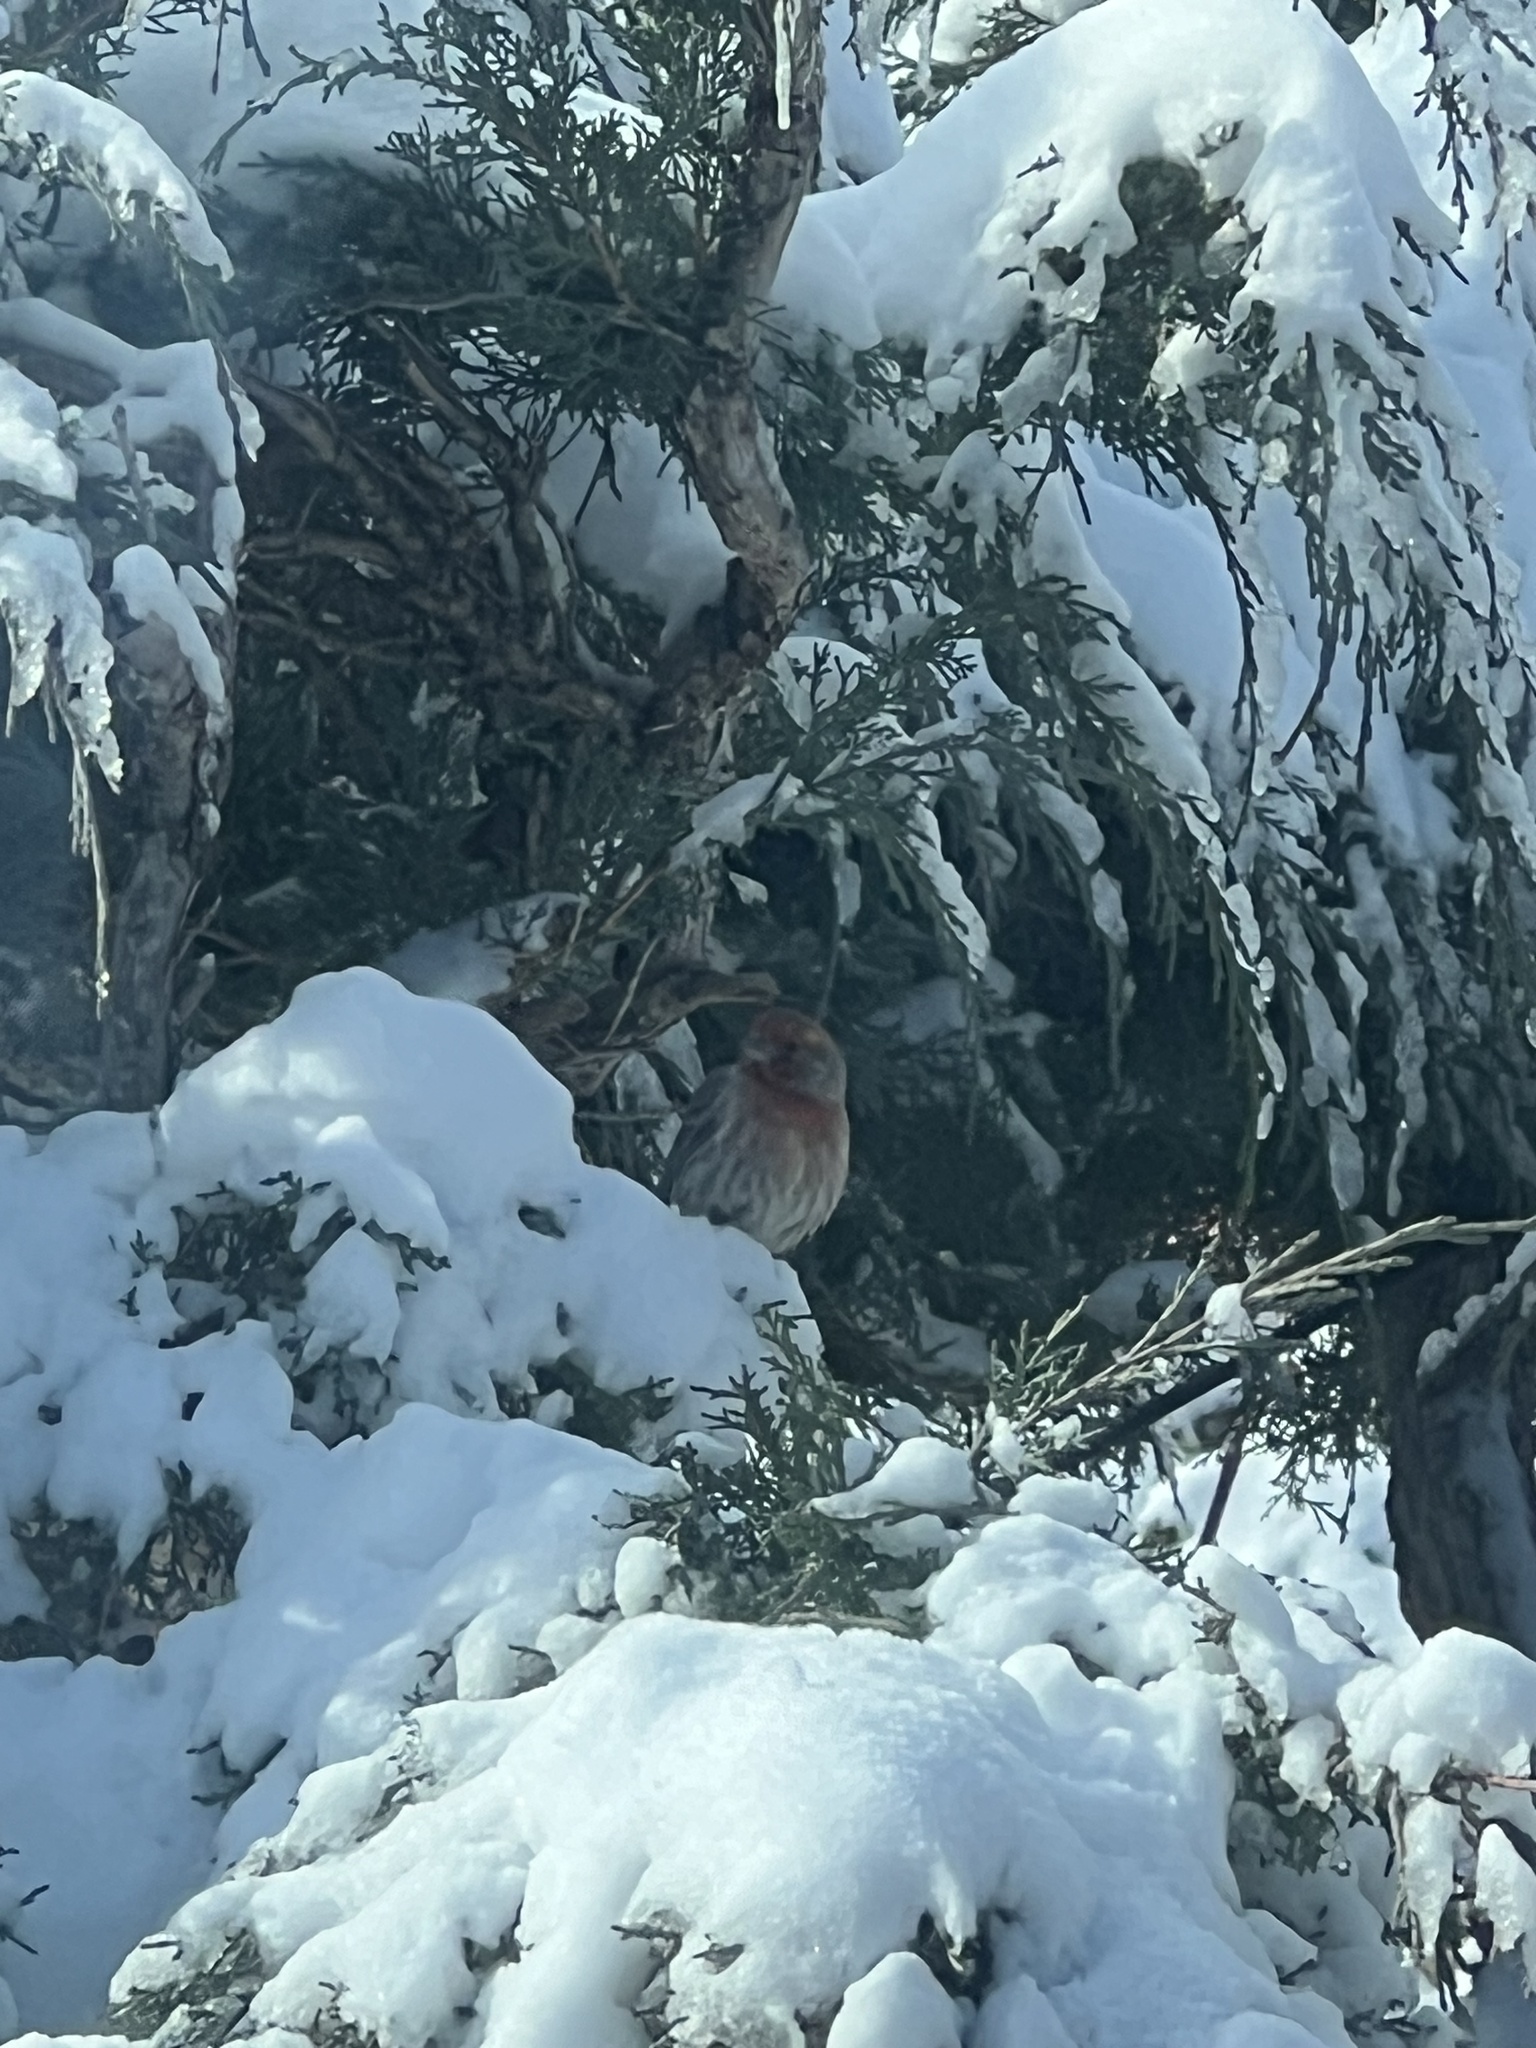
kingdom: Animalia
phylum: Chordata
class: Aves
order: Passeriformes
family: Fringillidae
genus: Haemorhous
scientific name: Haemorhous mexicanus
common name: House finch
